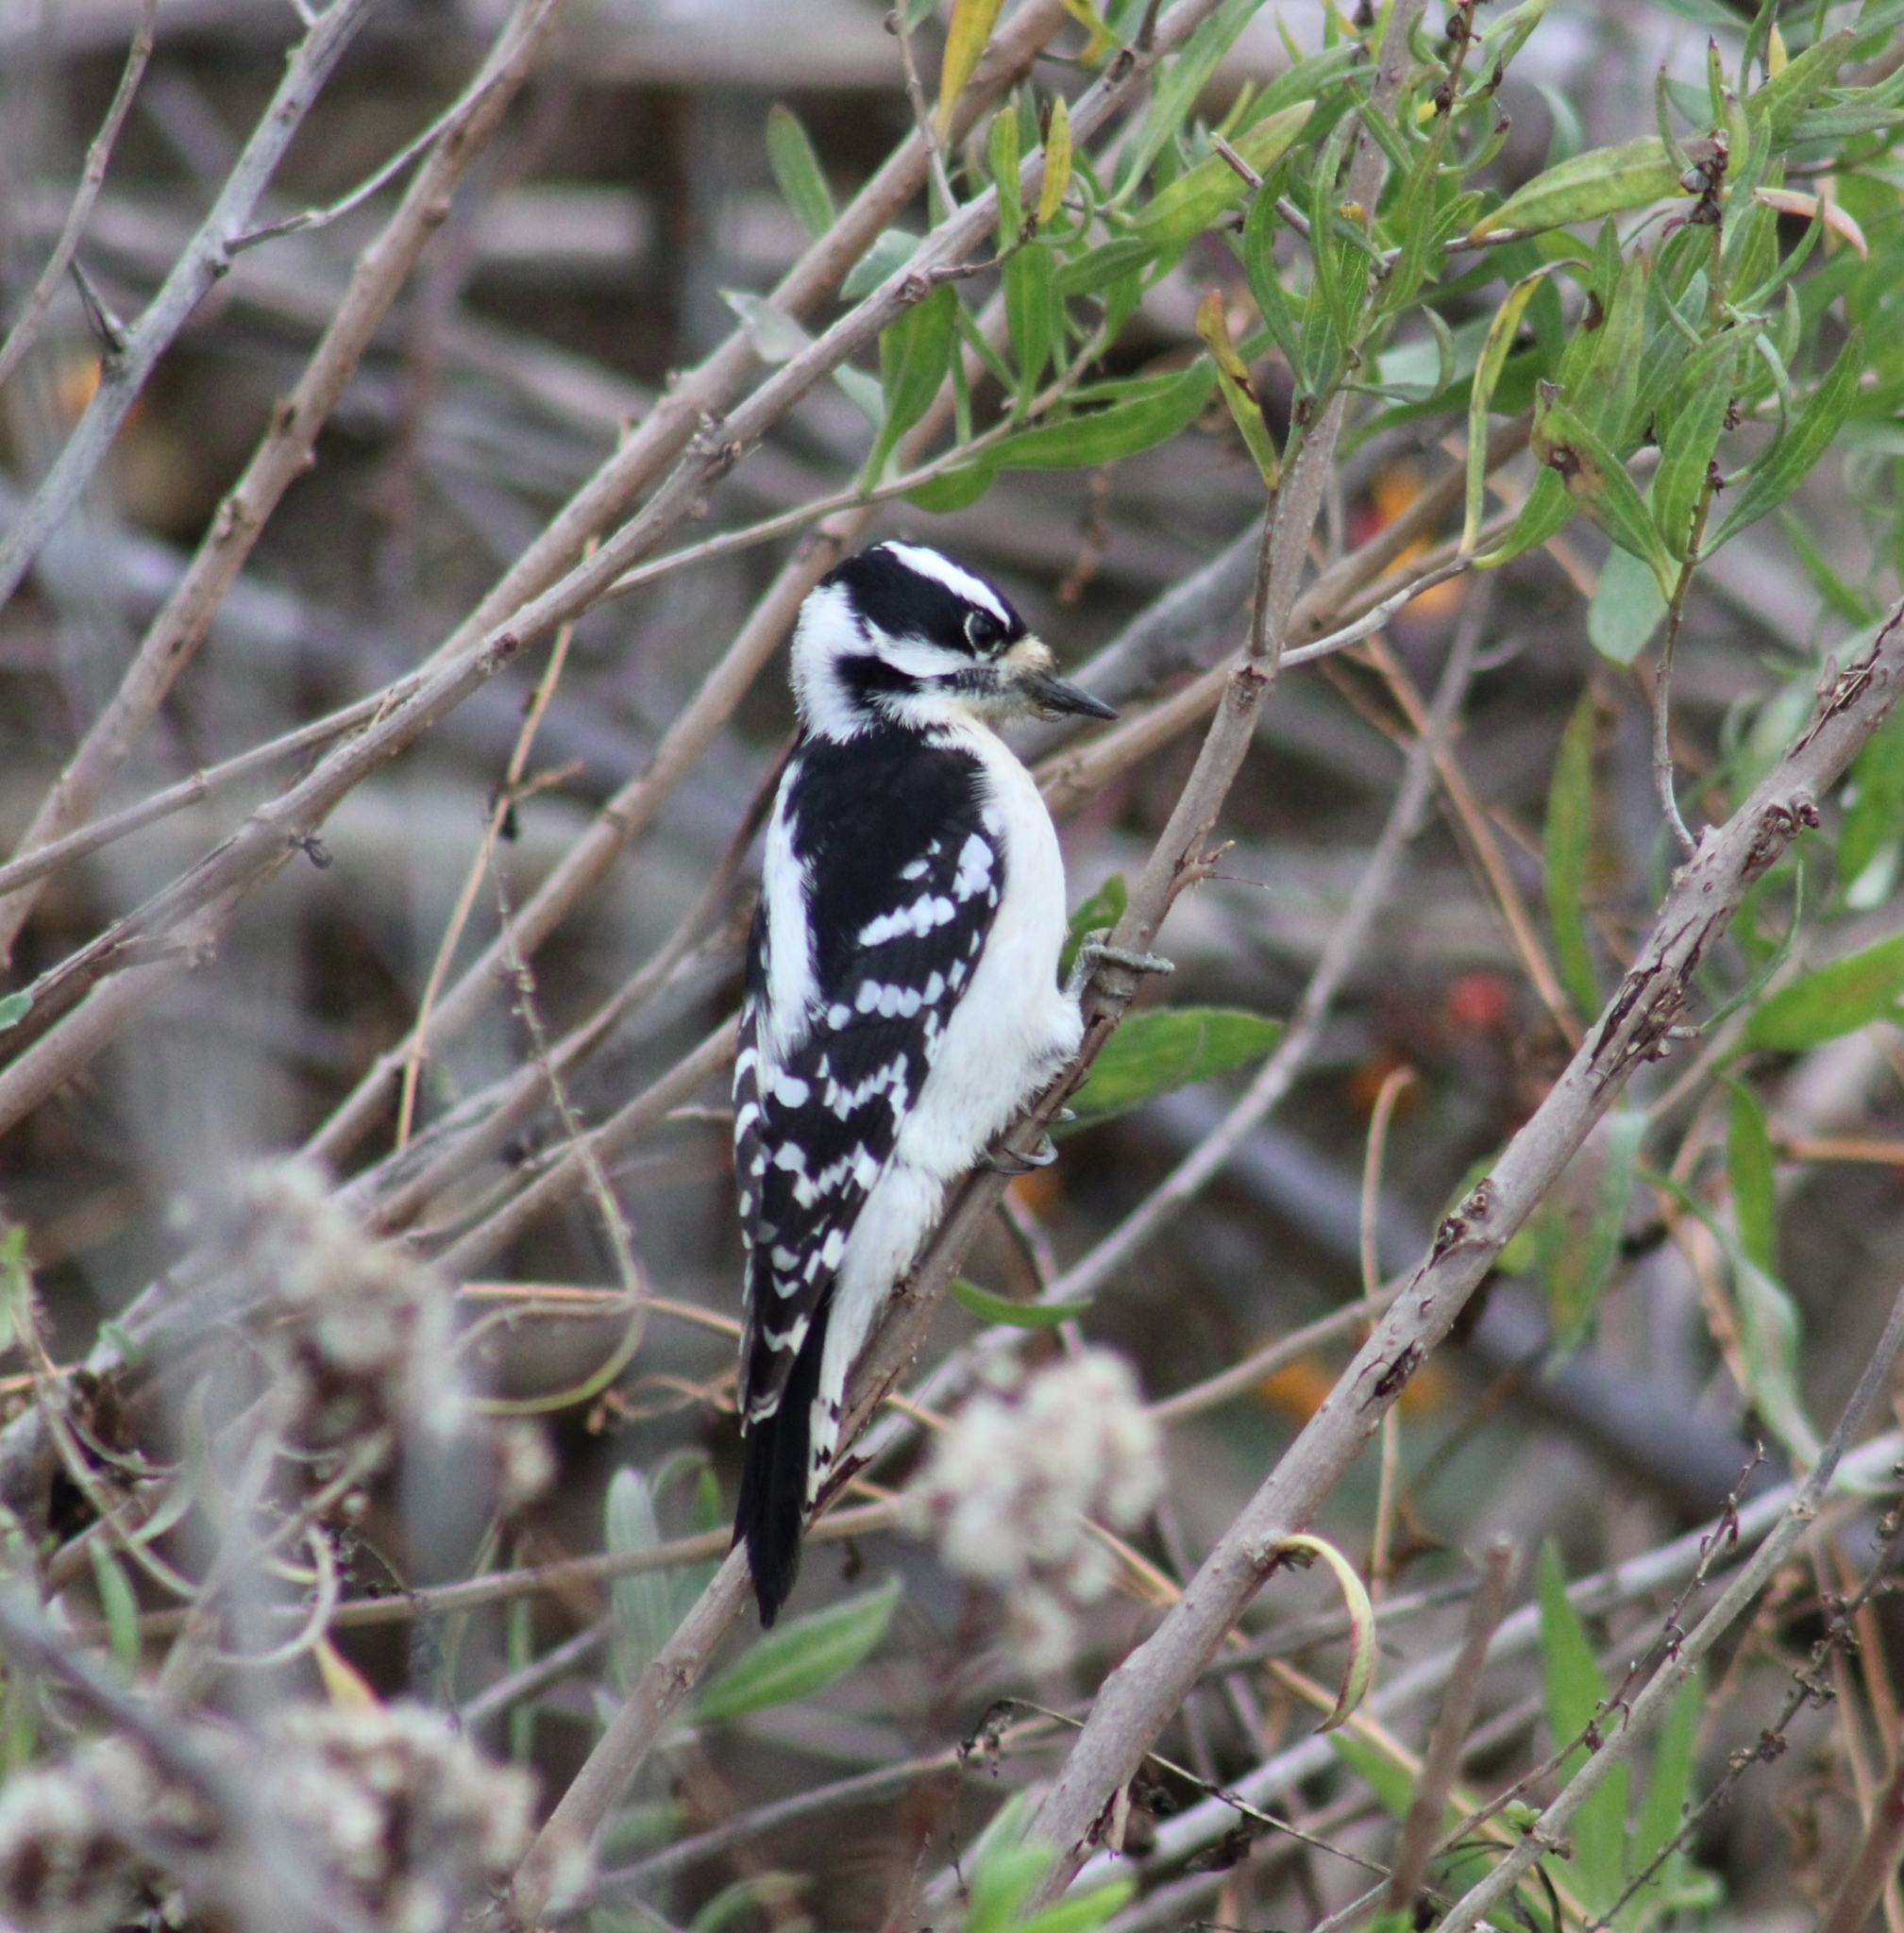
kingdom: Animalia
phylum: Chordata
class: Aves
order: Piciformes
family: Picidae
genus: Dryobates
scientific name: Dryobates pubescens
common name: Downy woodpecker
